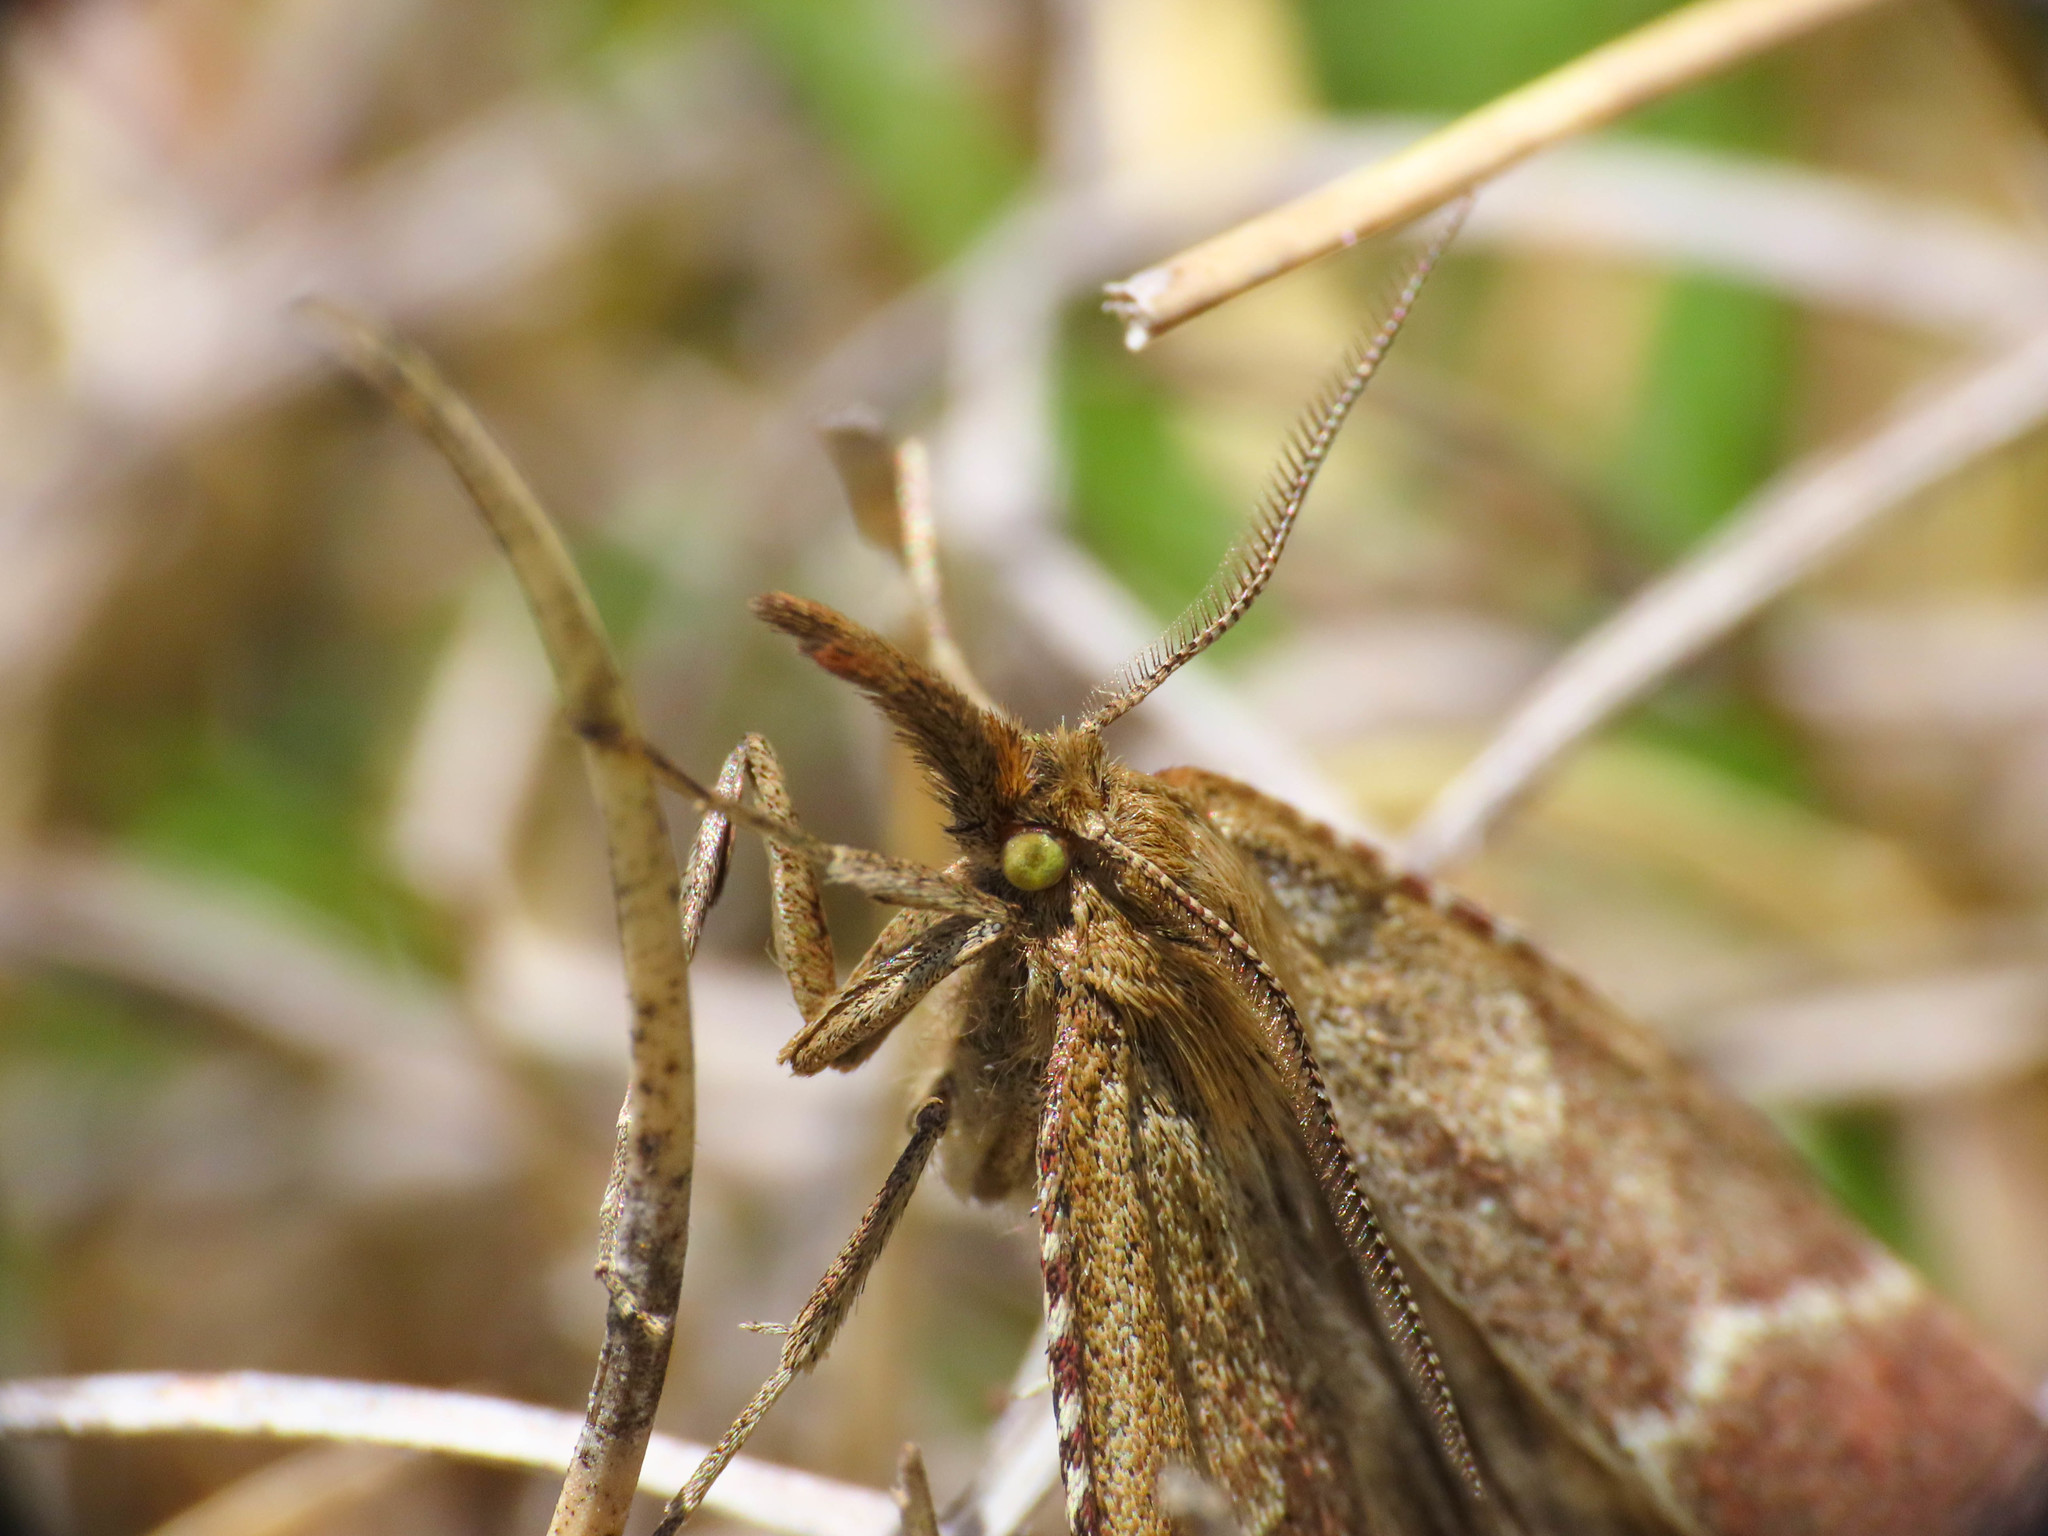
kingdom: Animalia
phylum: Arthropoda
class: Insecta
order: Lepidoptera
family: Pyralidae
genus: Synaphe
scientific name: Synaphe antennalis
